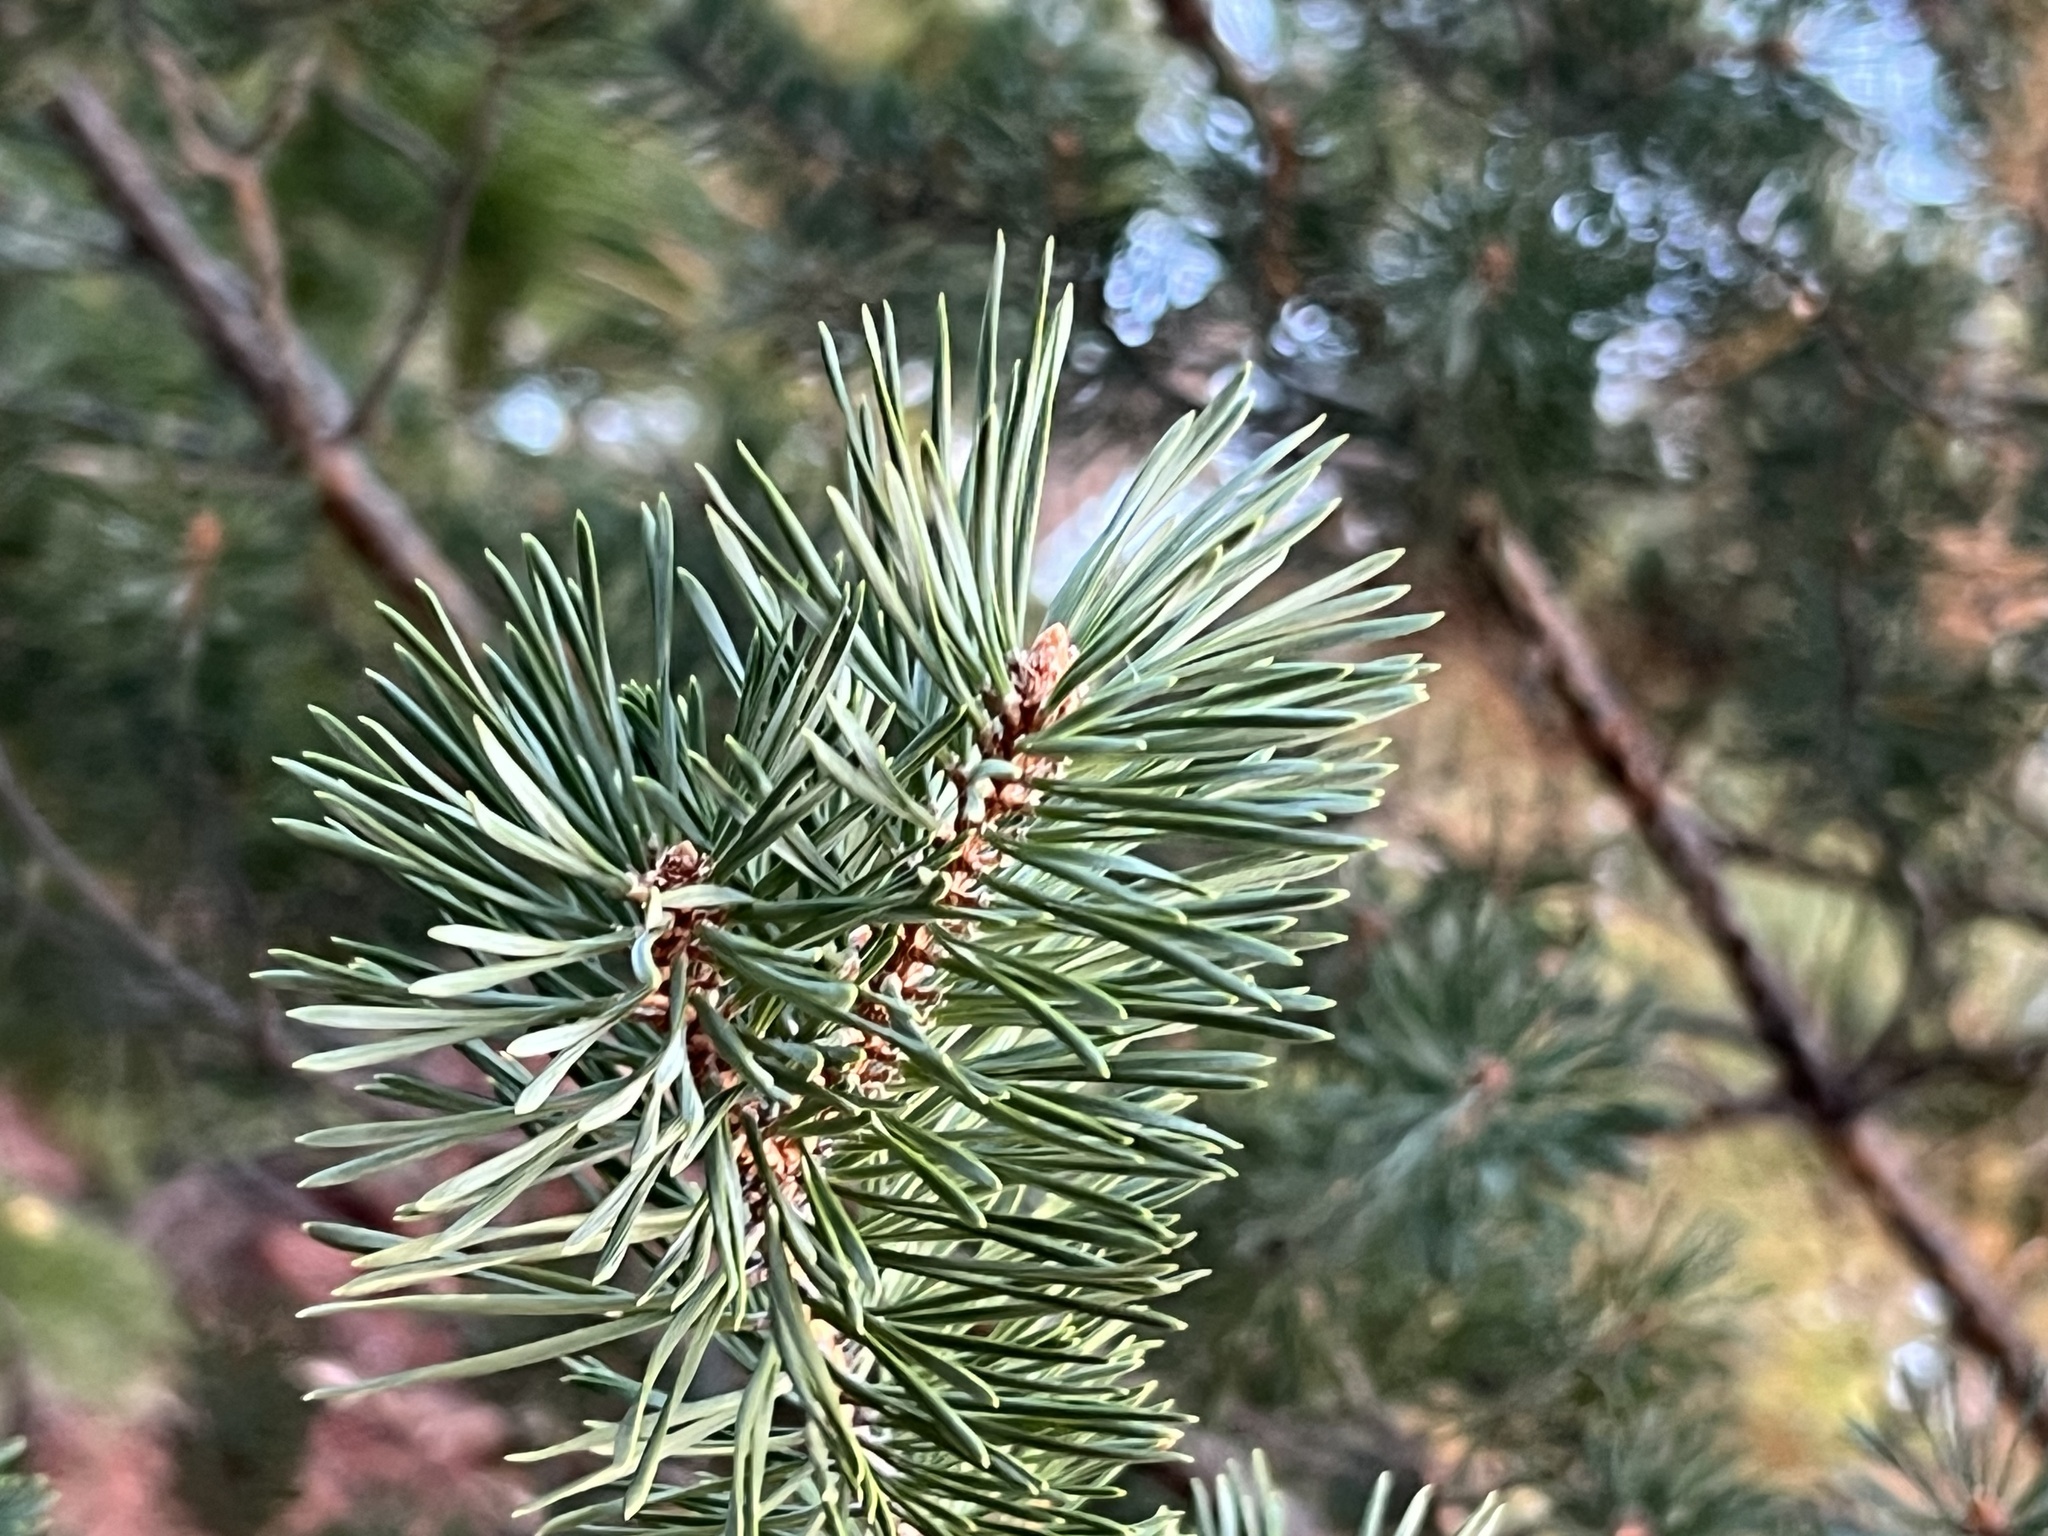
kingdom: Plantae
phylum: Tracheophyta
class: Pinopsida
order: Pinales
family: Pinaceae
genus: Pinus
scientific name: Pinus edulis
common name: Colorado pinyon
